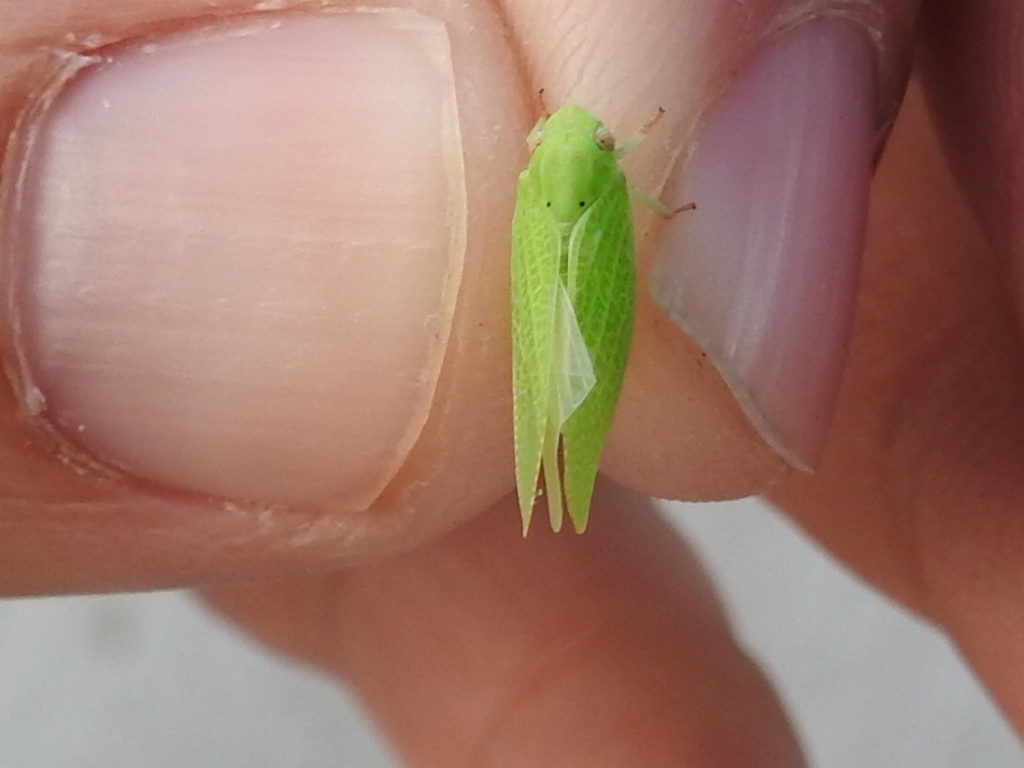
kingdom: Animalia
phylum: Arthropoda
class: Insecta
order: Hemiptera
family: Acanaloniidae
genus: Acanalonia
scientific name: Acanalonia conica
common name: Green cone-headed planthopper
